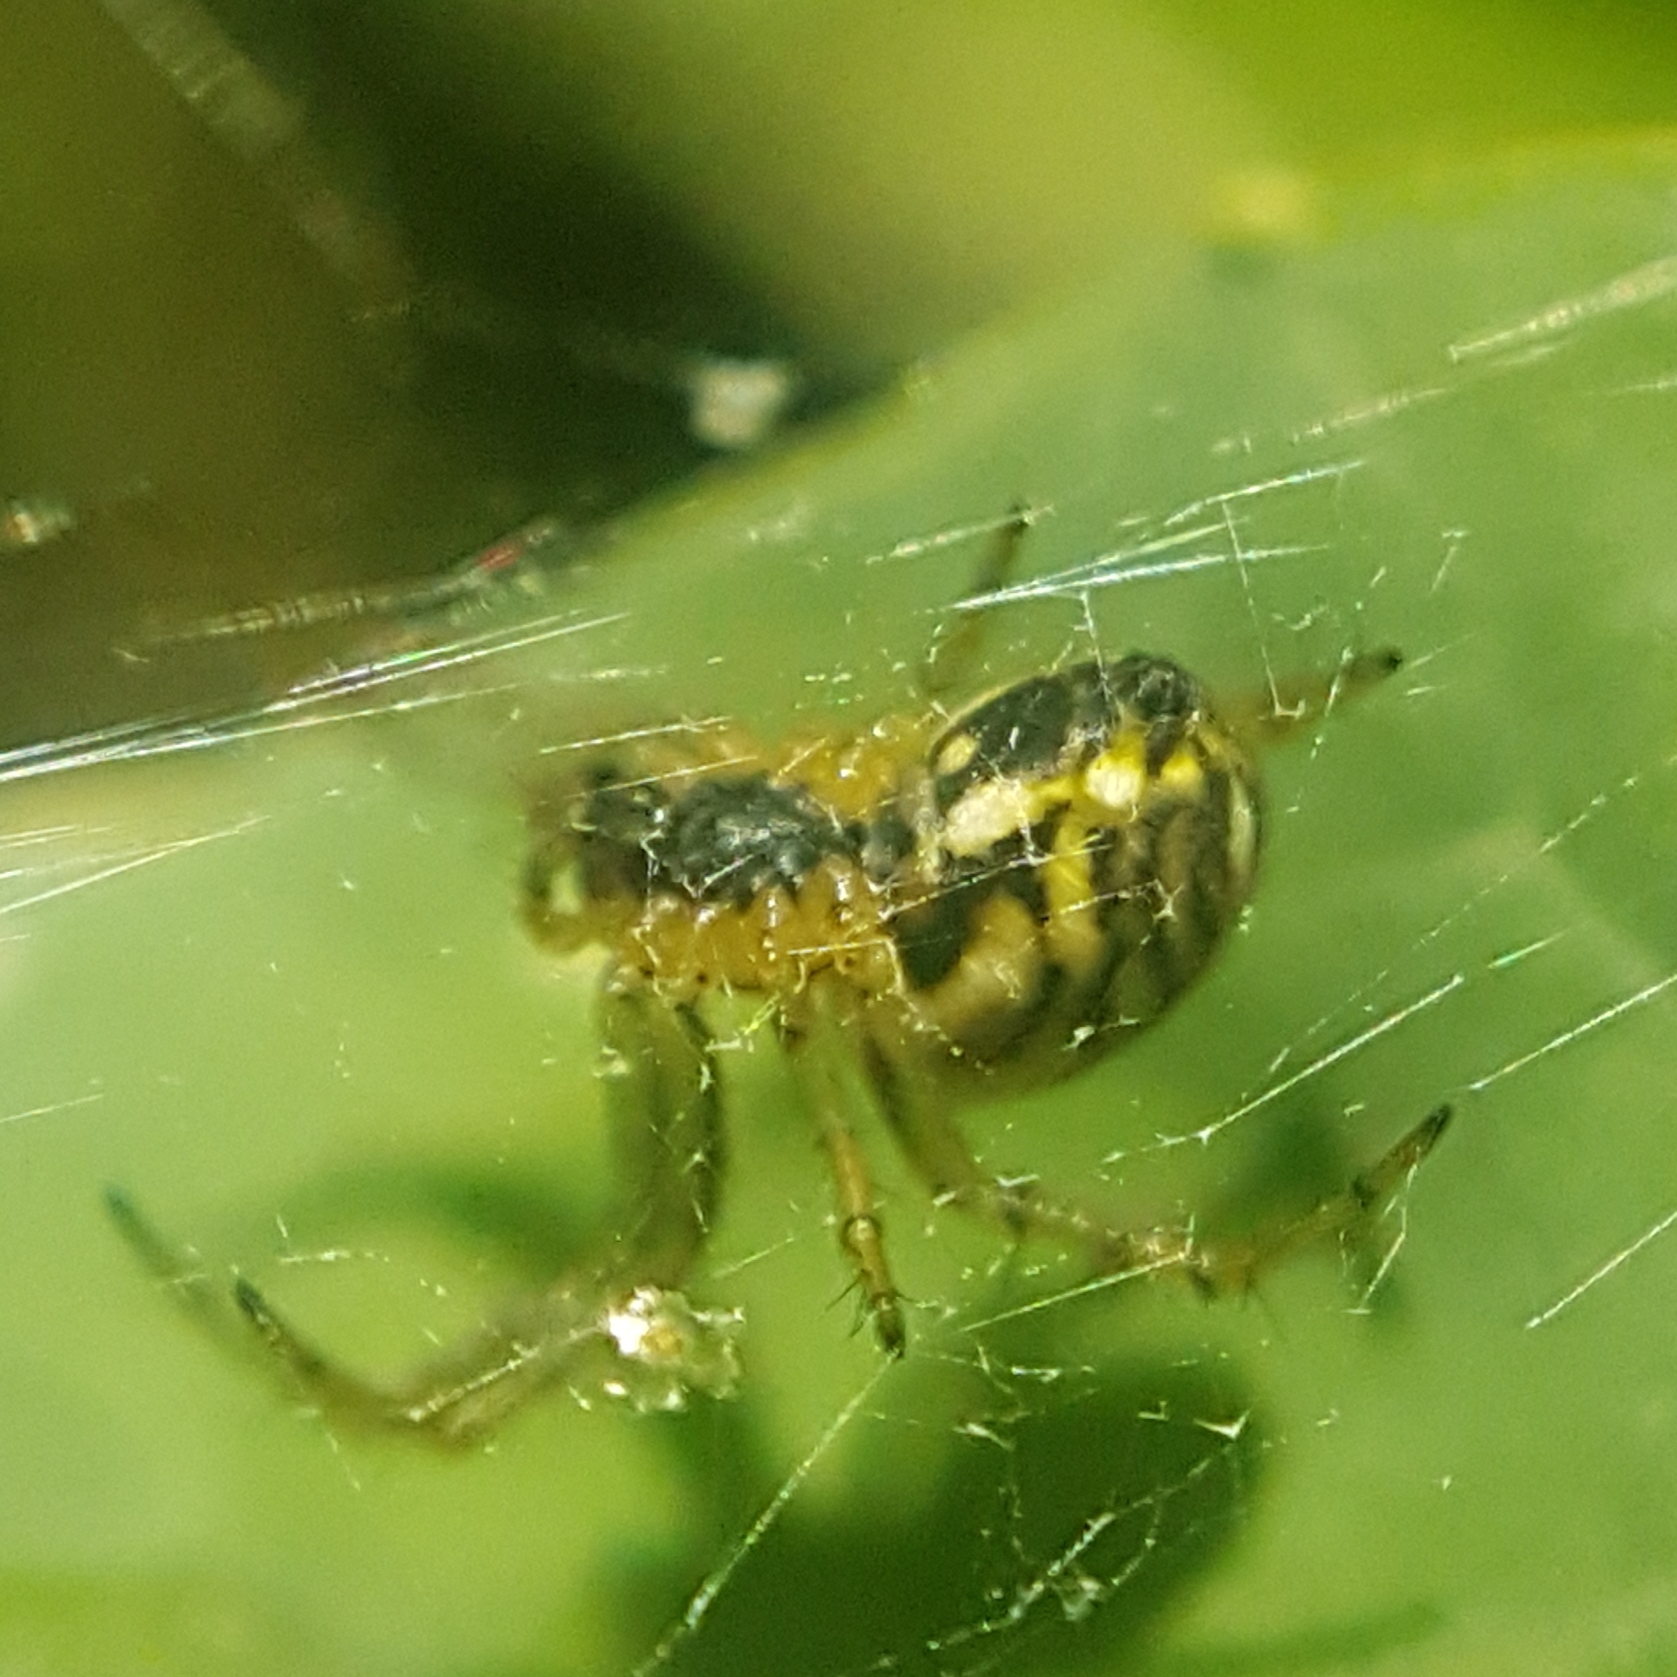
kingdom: Animalia
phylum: Arthropoda
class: Arachnida
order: Araneae
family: Araneidae
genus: Mangora
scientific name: Mangora acalypha
